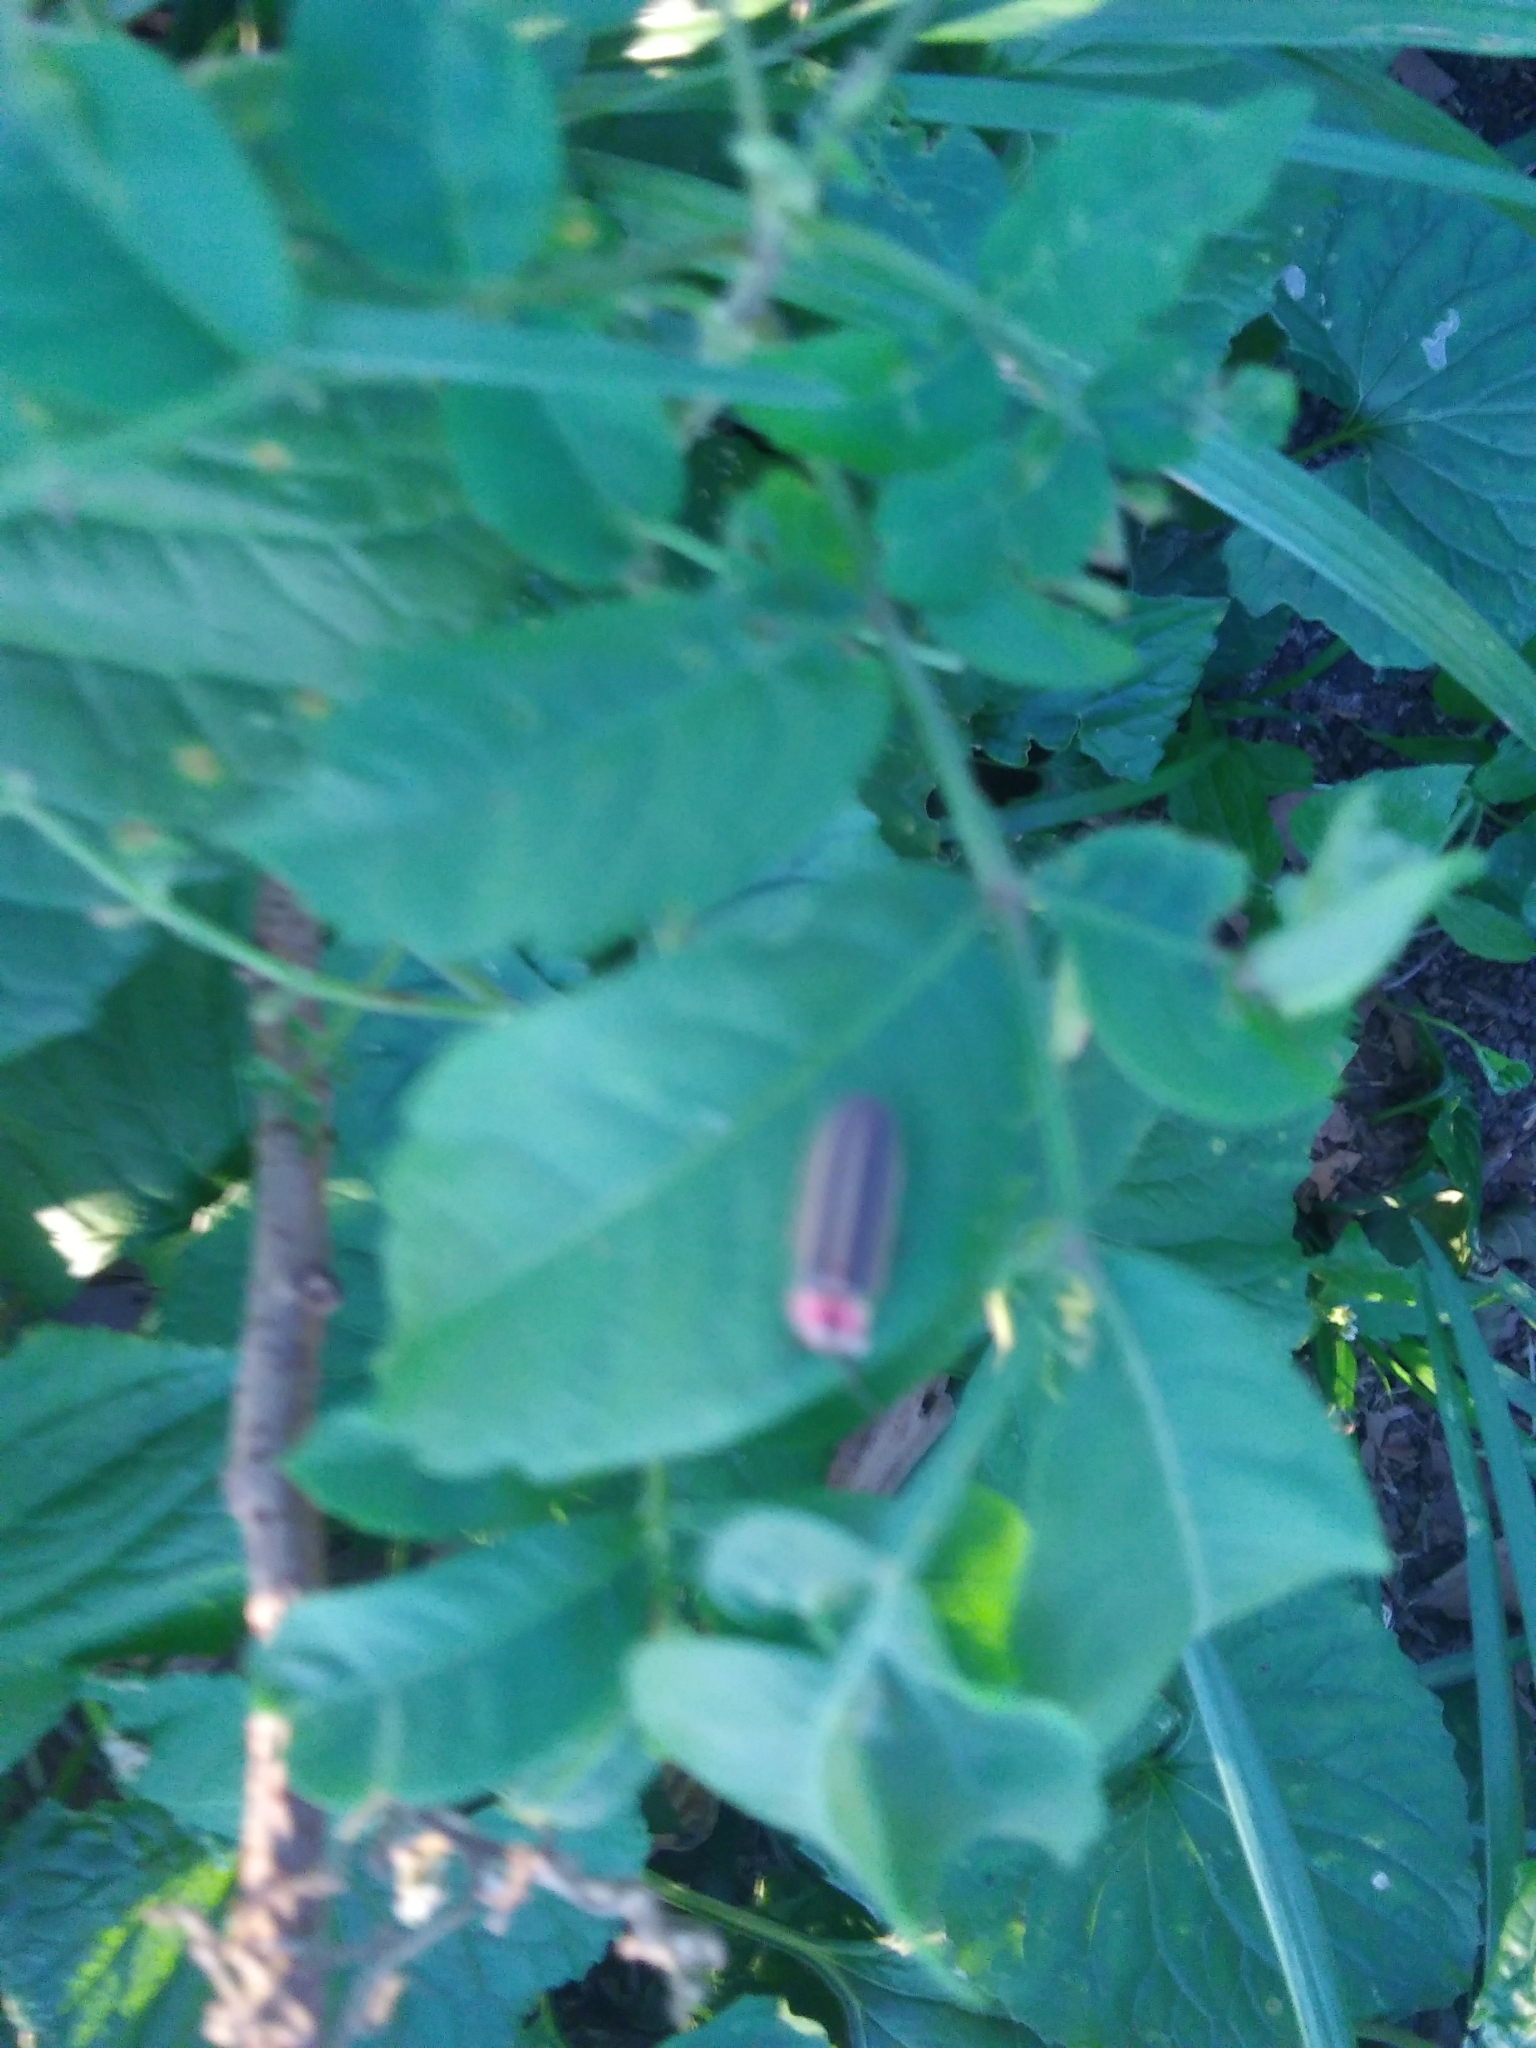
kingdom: Plantae
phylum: Tracheophyta
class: Magnoliopsida
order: Sapindales
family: Anacardiaceae
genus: Rhus
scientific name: Rhus copallina
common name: Shining sumac
